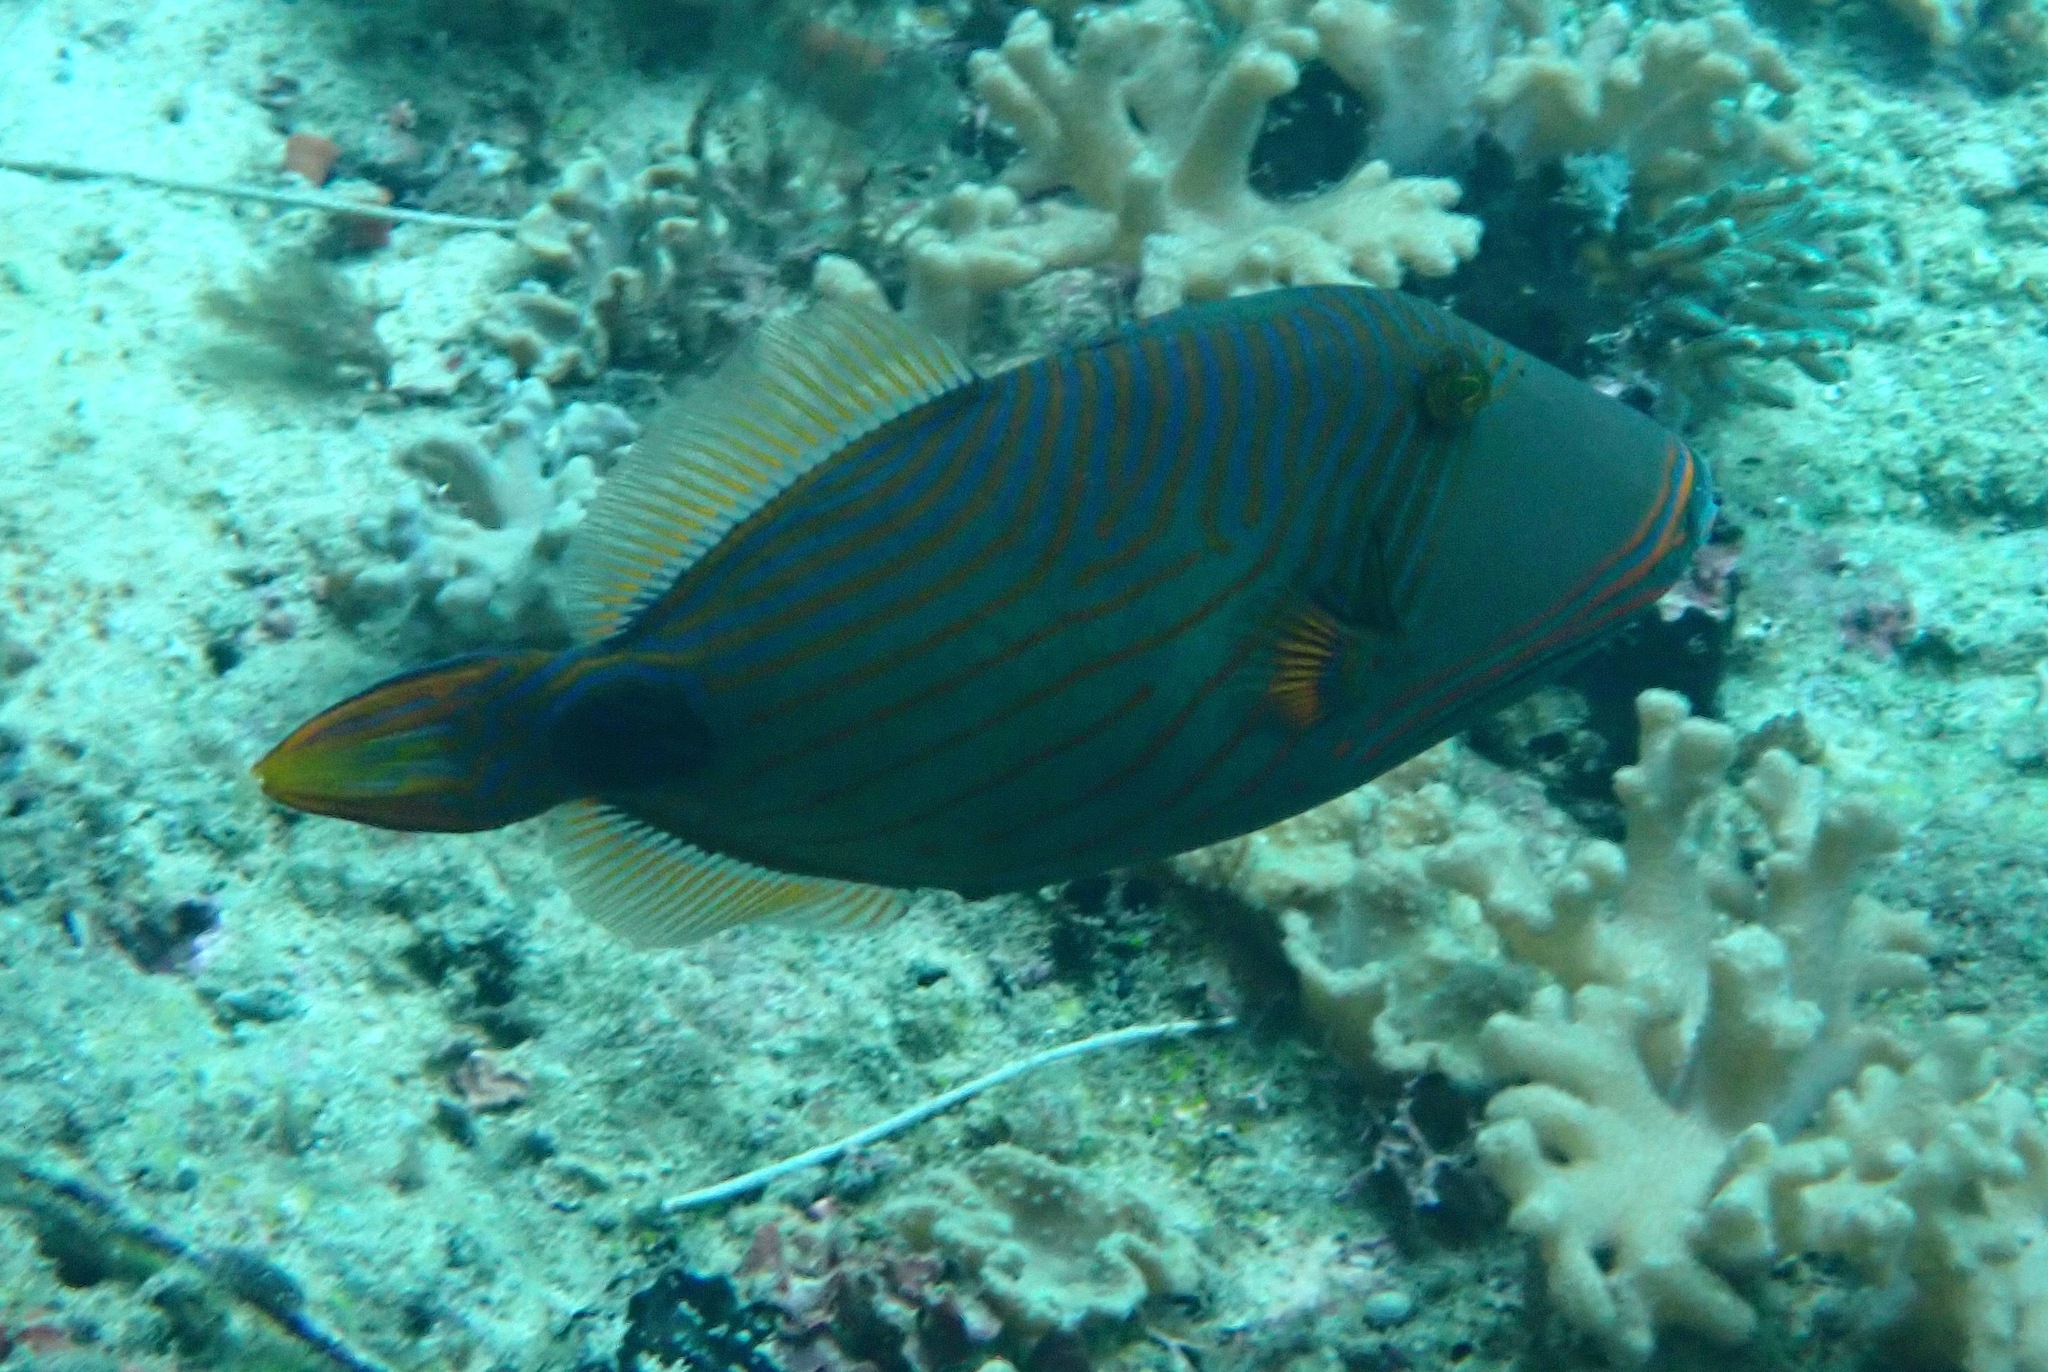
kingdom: Animalia
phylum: Chordata
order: Tetraodontiformes
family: Balistidae
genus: Balistapus
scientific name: Balistapus undulatus
